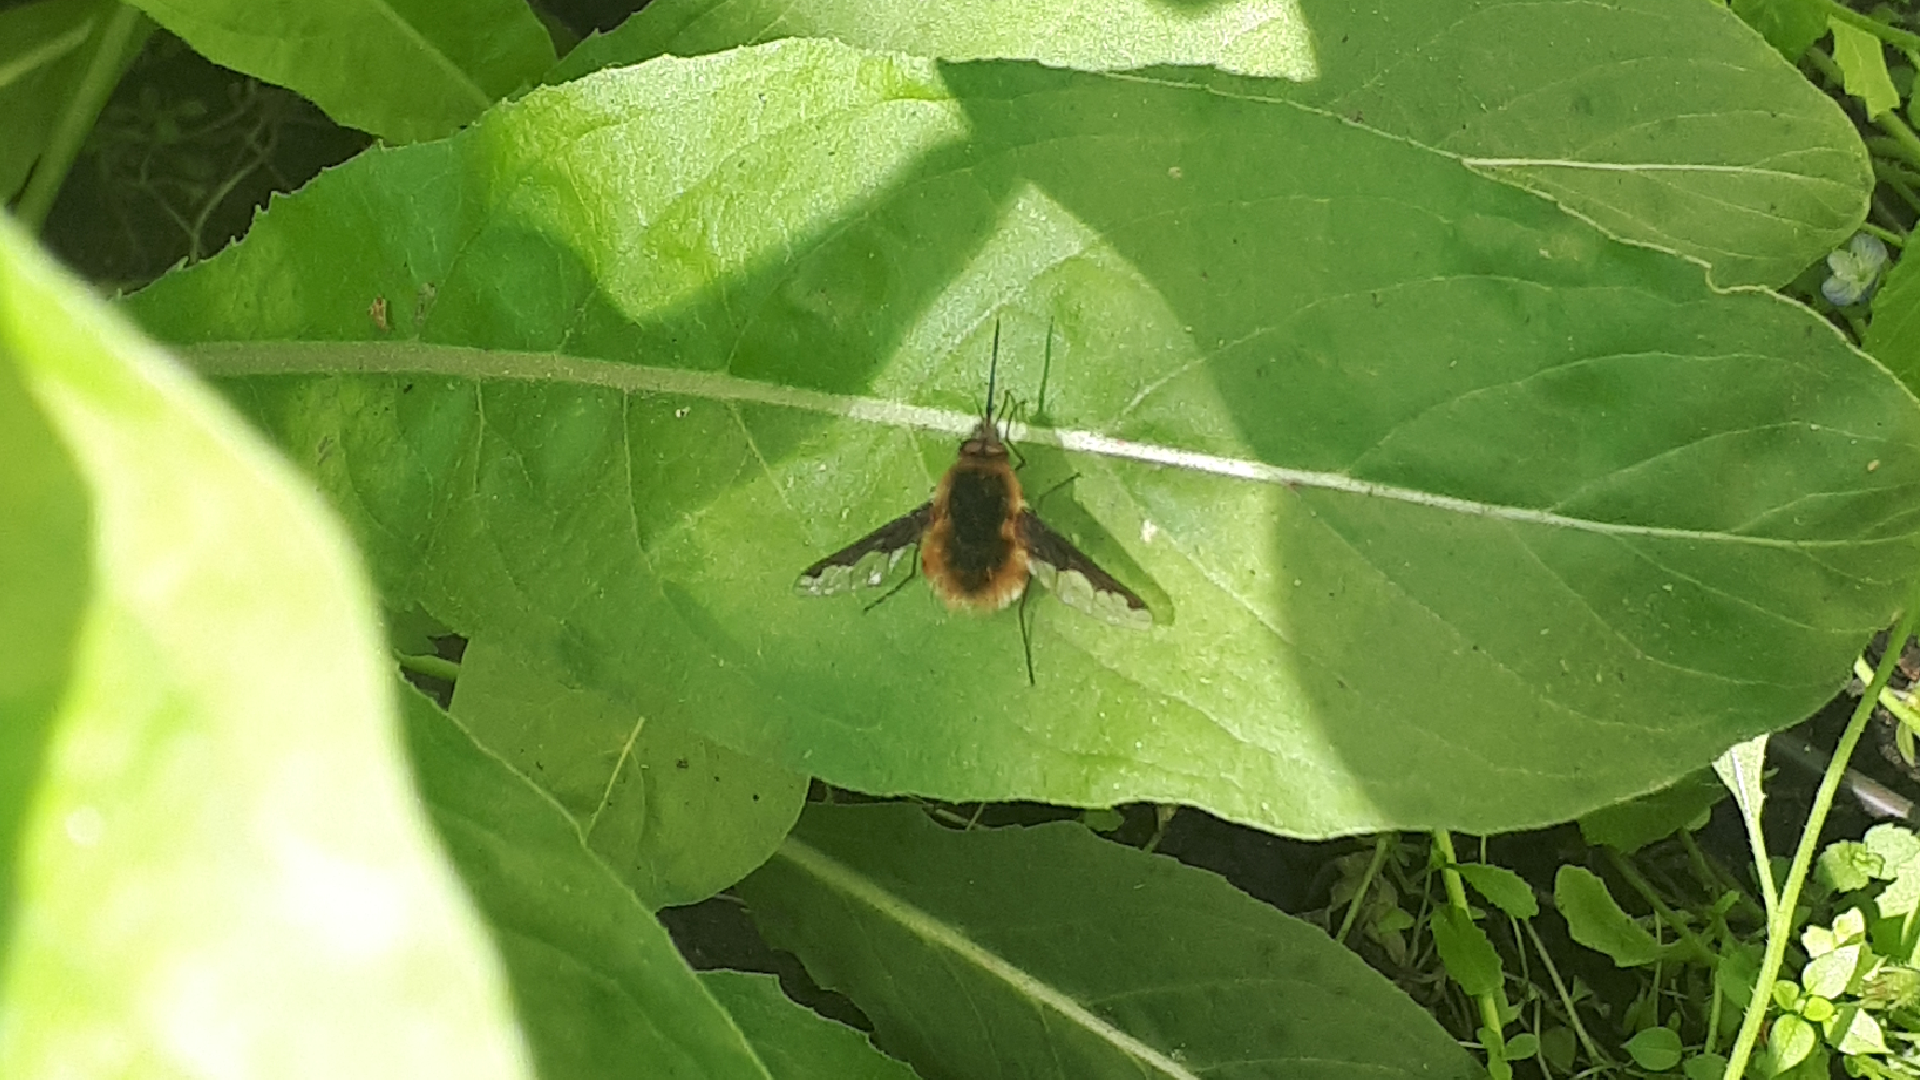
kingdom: Animalia
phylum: Arthropoda
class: Insecta
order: Diptera
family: Bombyliidae
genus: Bombylius
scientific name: Bombylius major
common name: Bee fly
